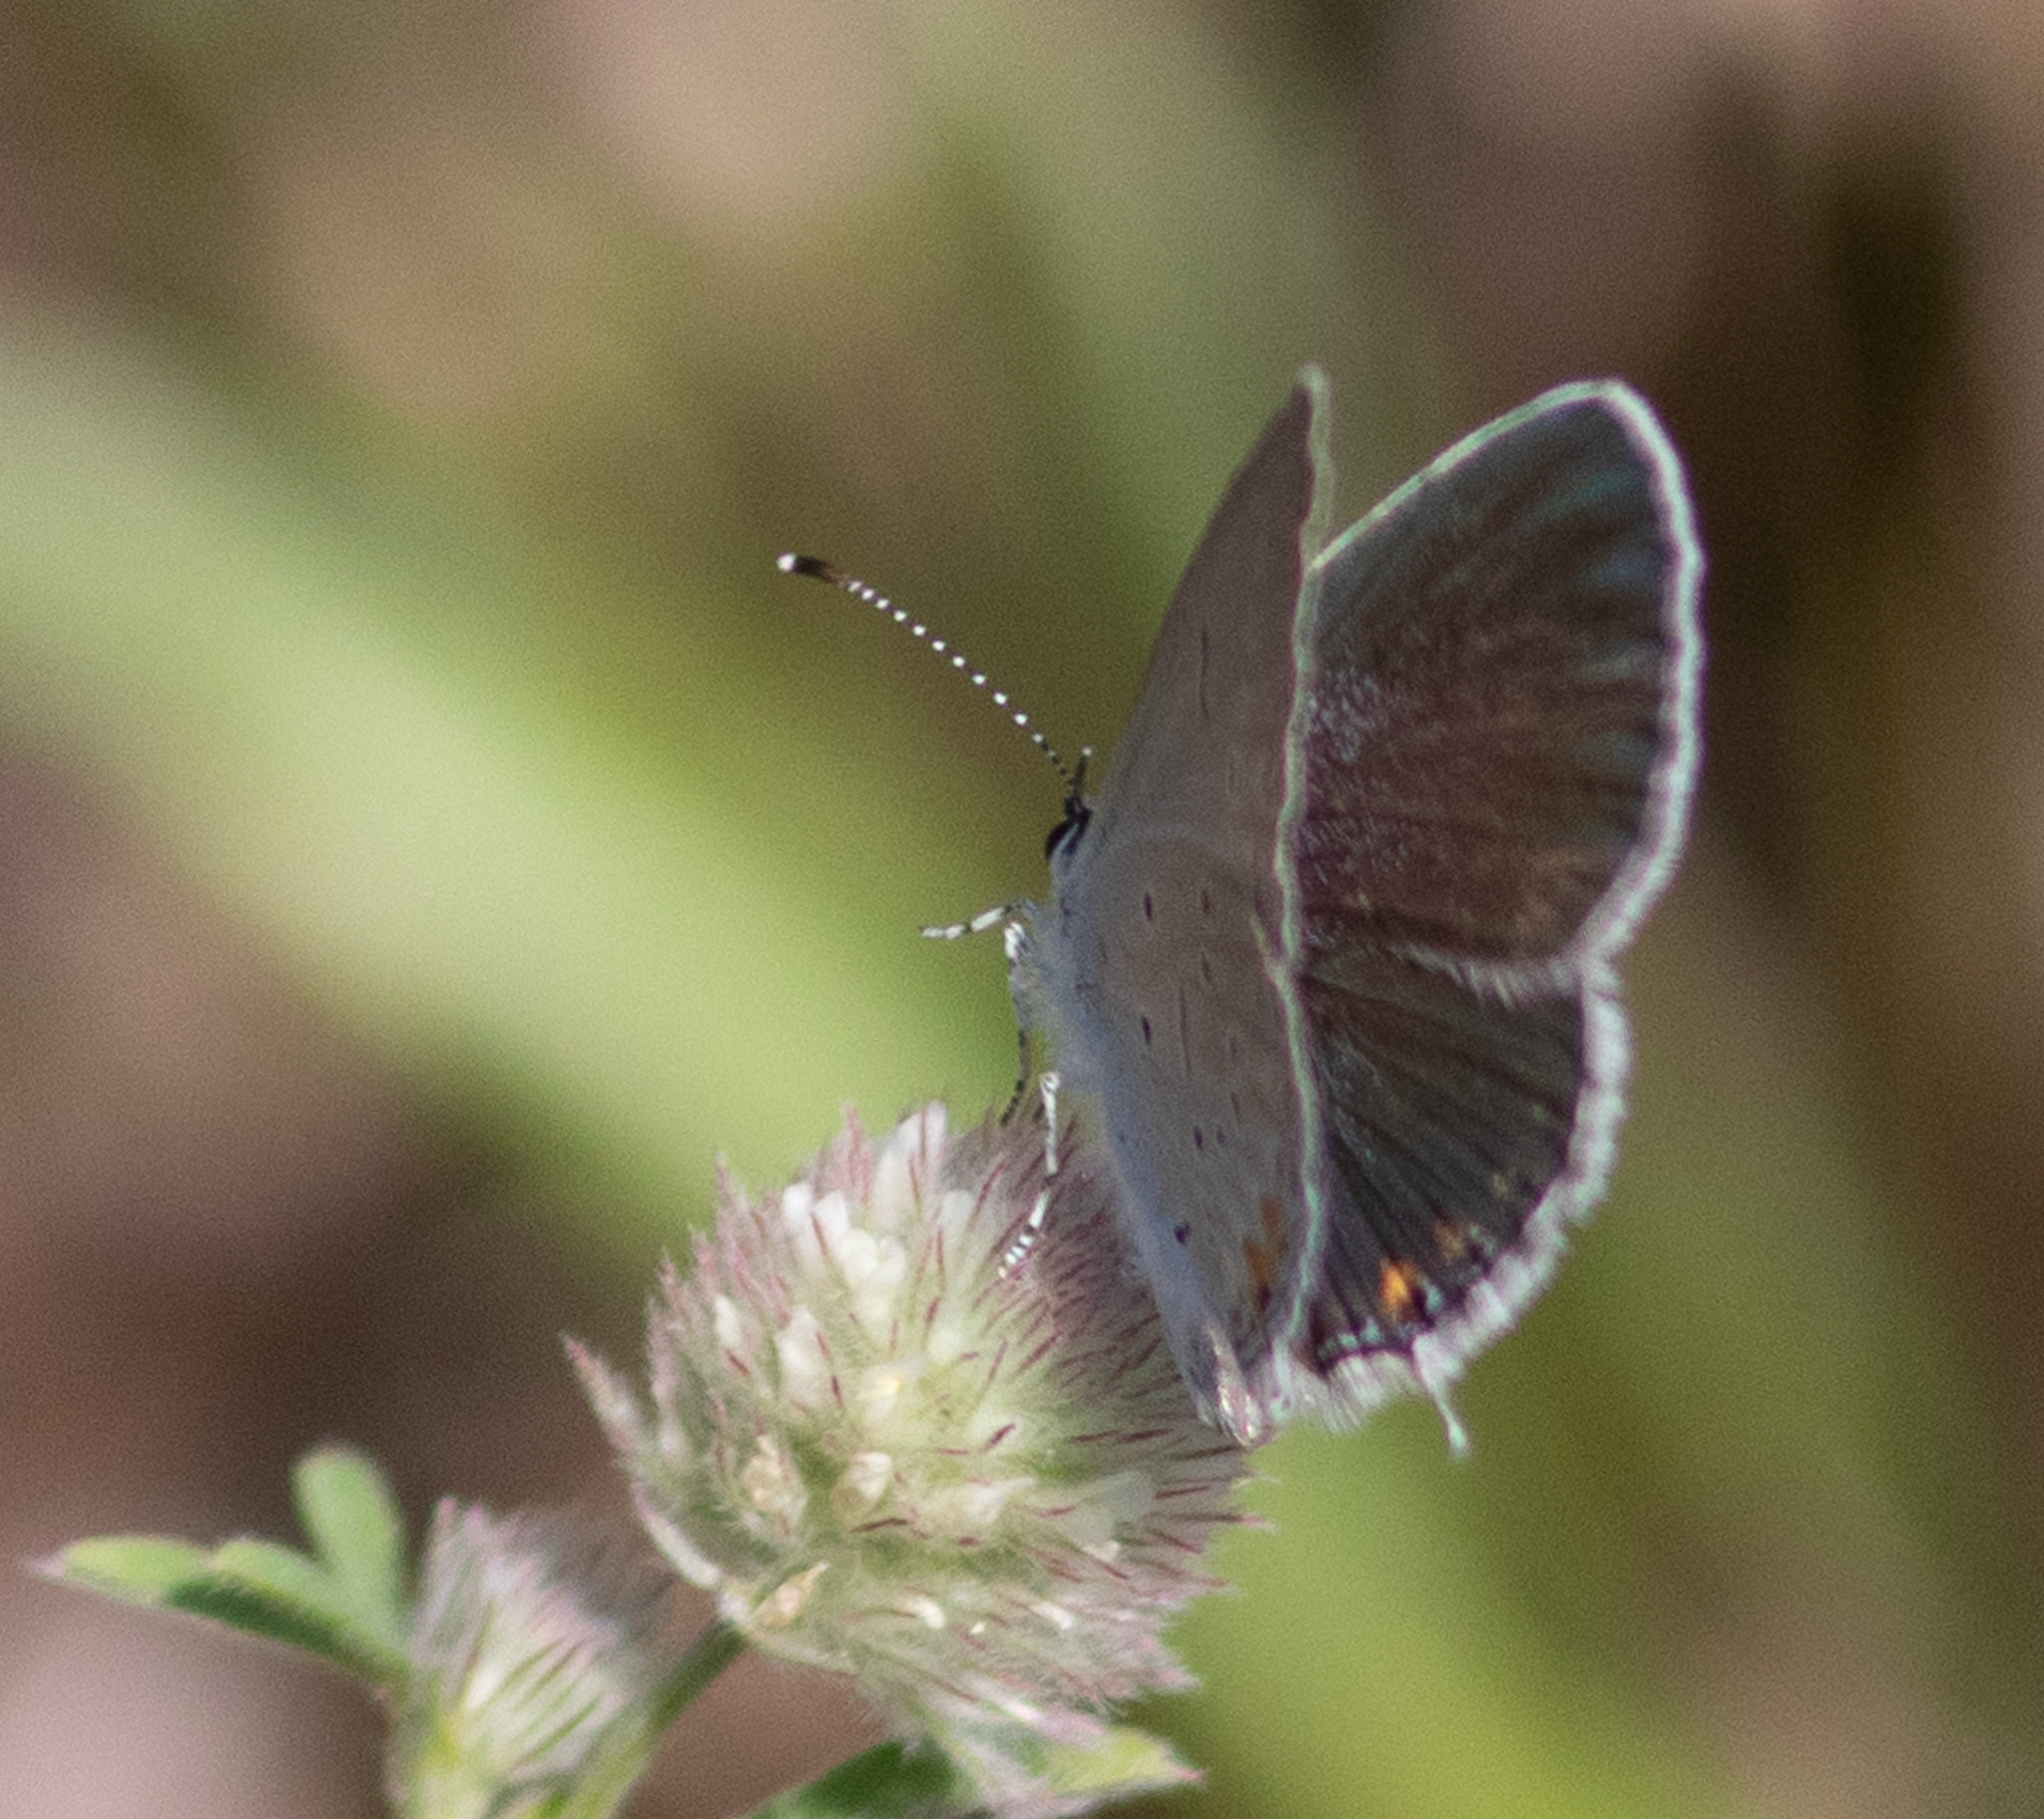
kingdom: Animalia
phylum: Arthropoda
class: Insecta
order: Lepidoptera
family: Lycaenidae
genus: Elkalyce
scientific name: Elkalyce comyntas
